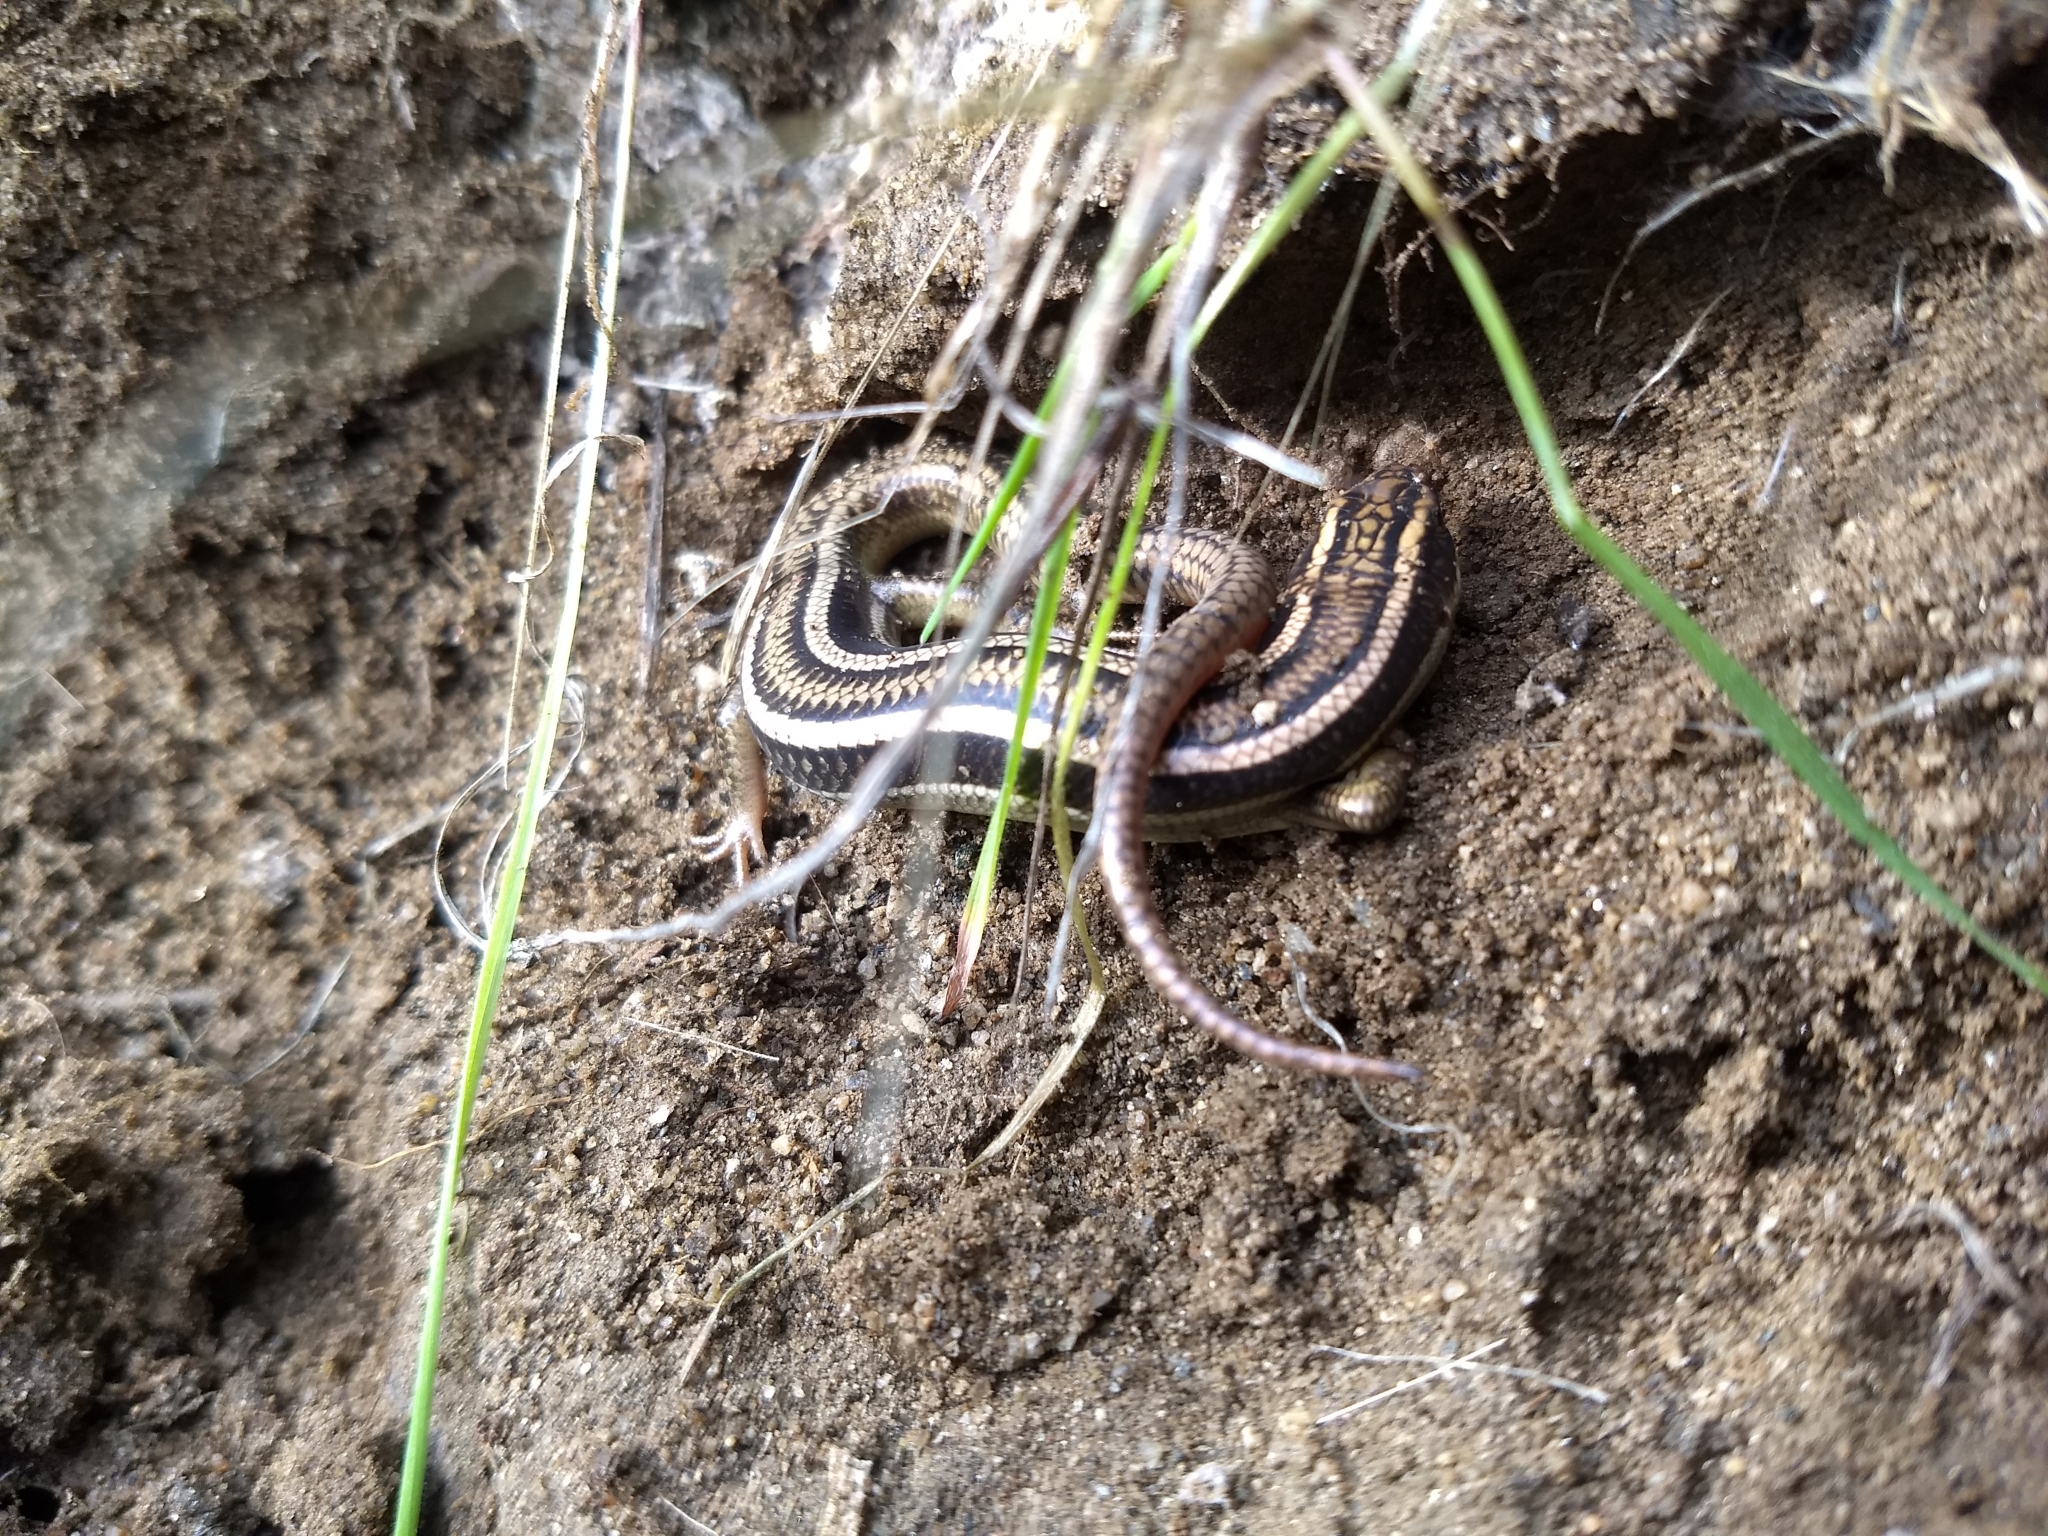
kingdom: Animalia
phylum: Chordata
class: Squamata
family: Scincidae
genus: Plestiodon
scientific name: Plestiodon gilberti
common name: Gilbert's skink
